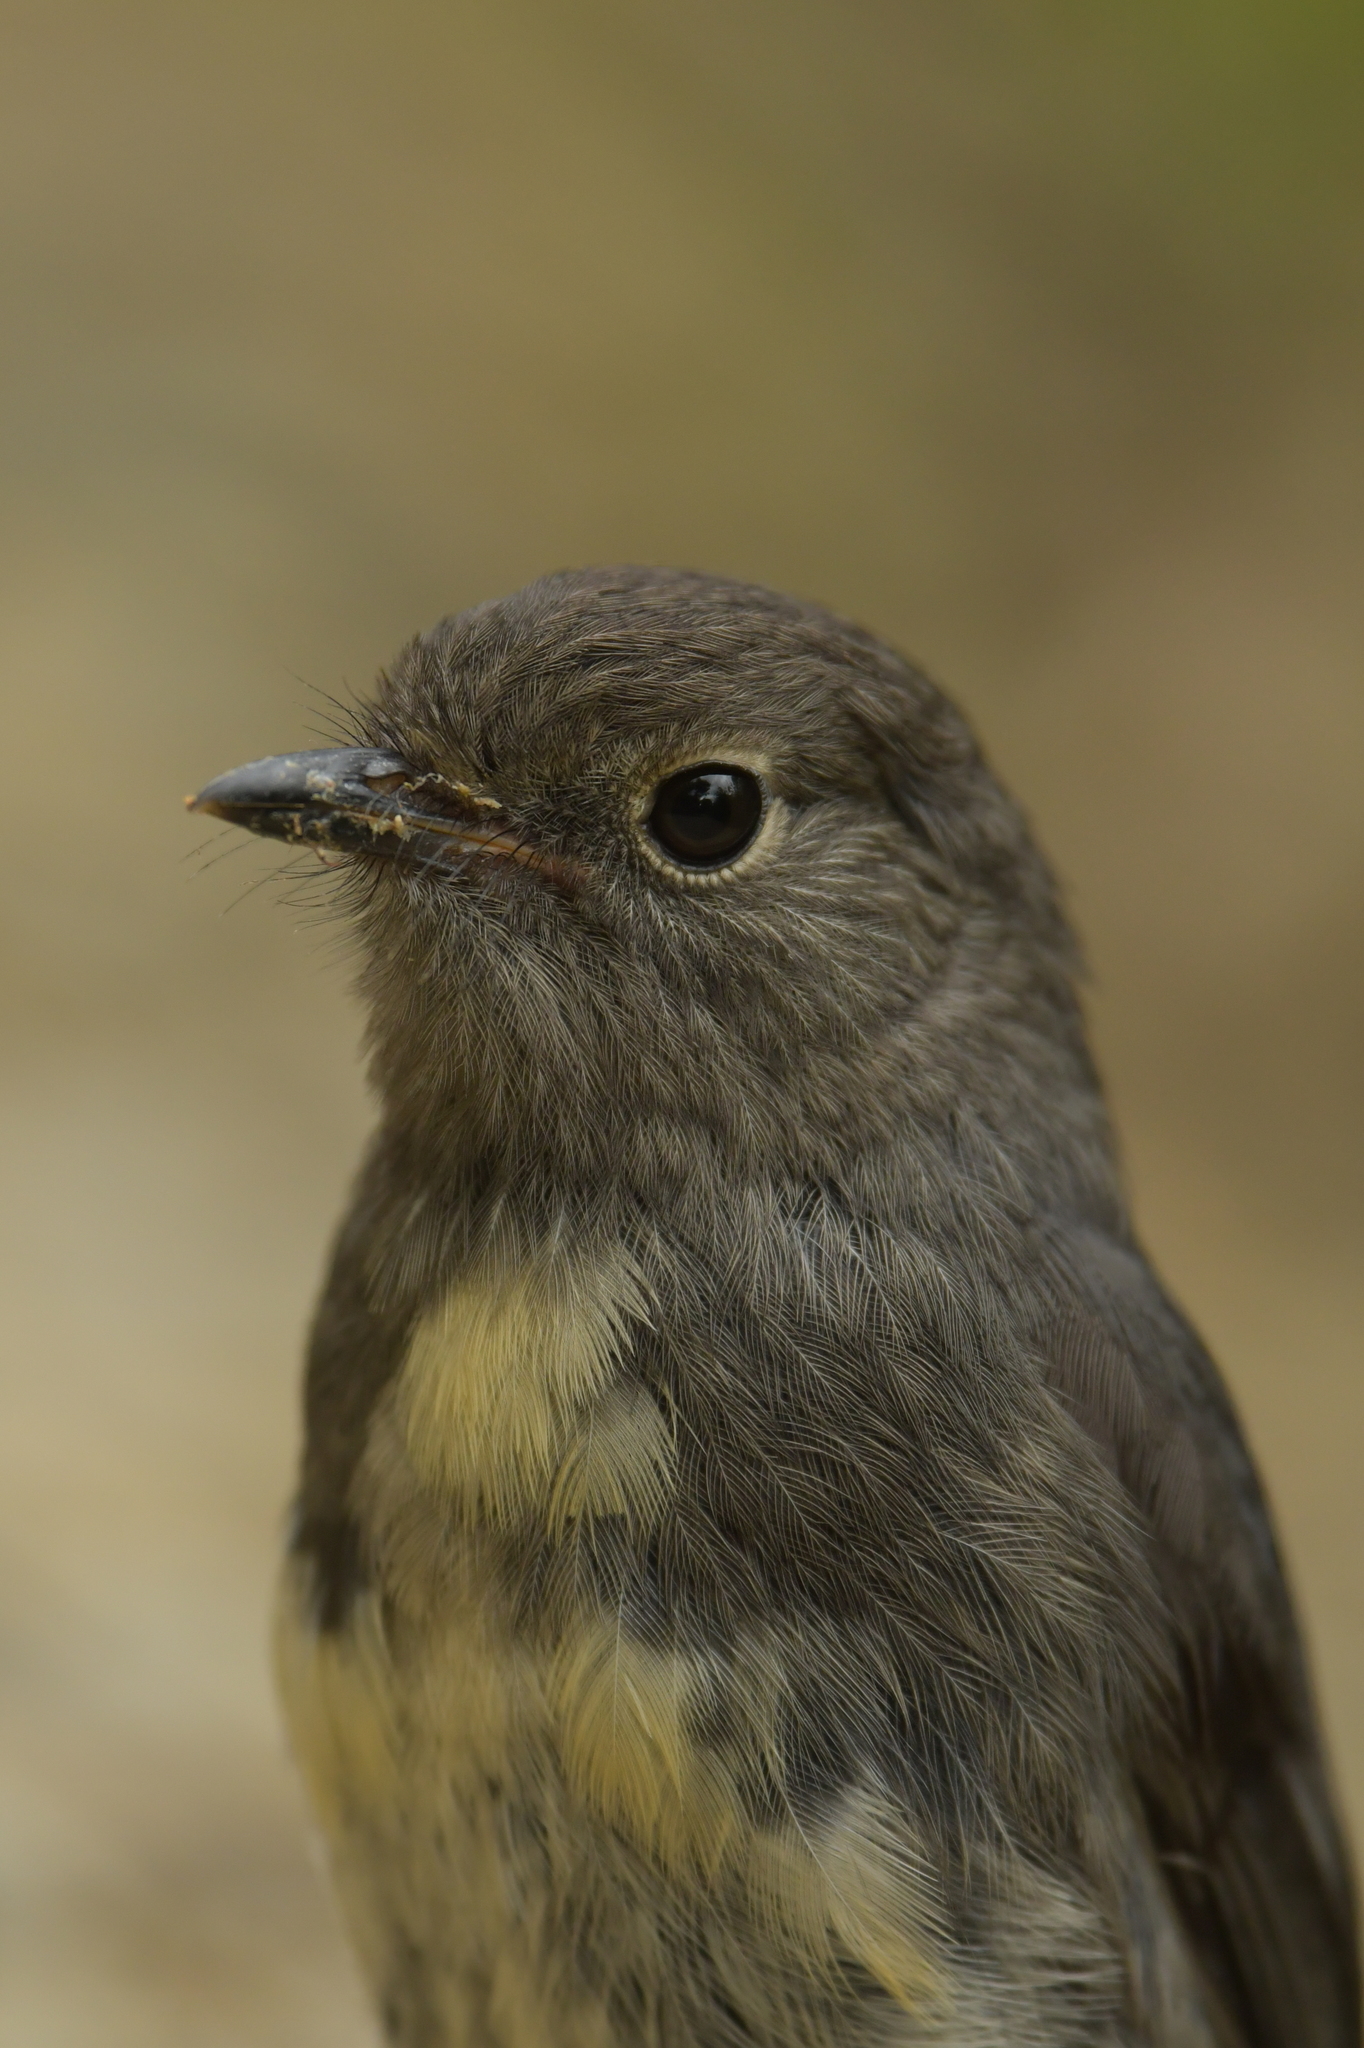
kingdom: Animalia
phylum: Chordata
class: Aves
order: Passeriformes
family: Petroicidae
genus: Petroica
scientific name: Petroica australis
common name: New zealand robin
